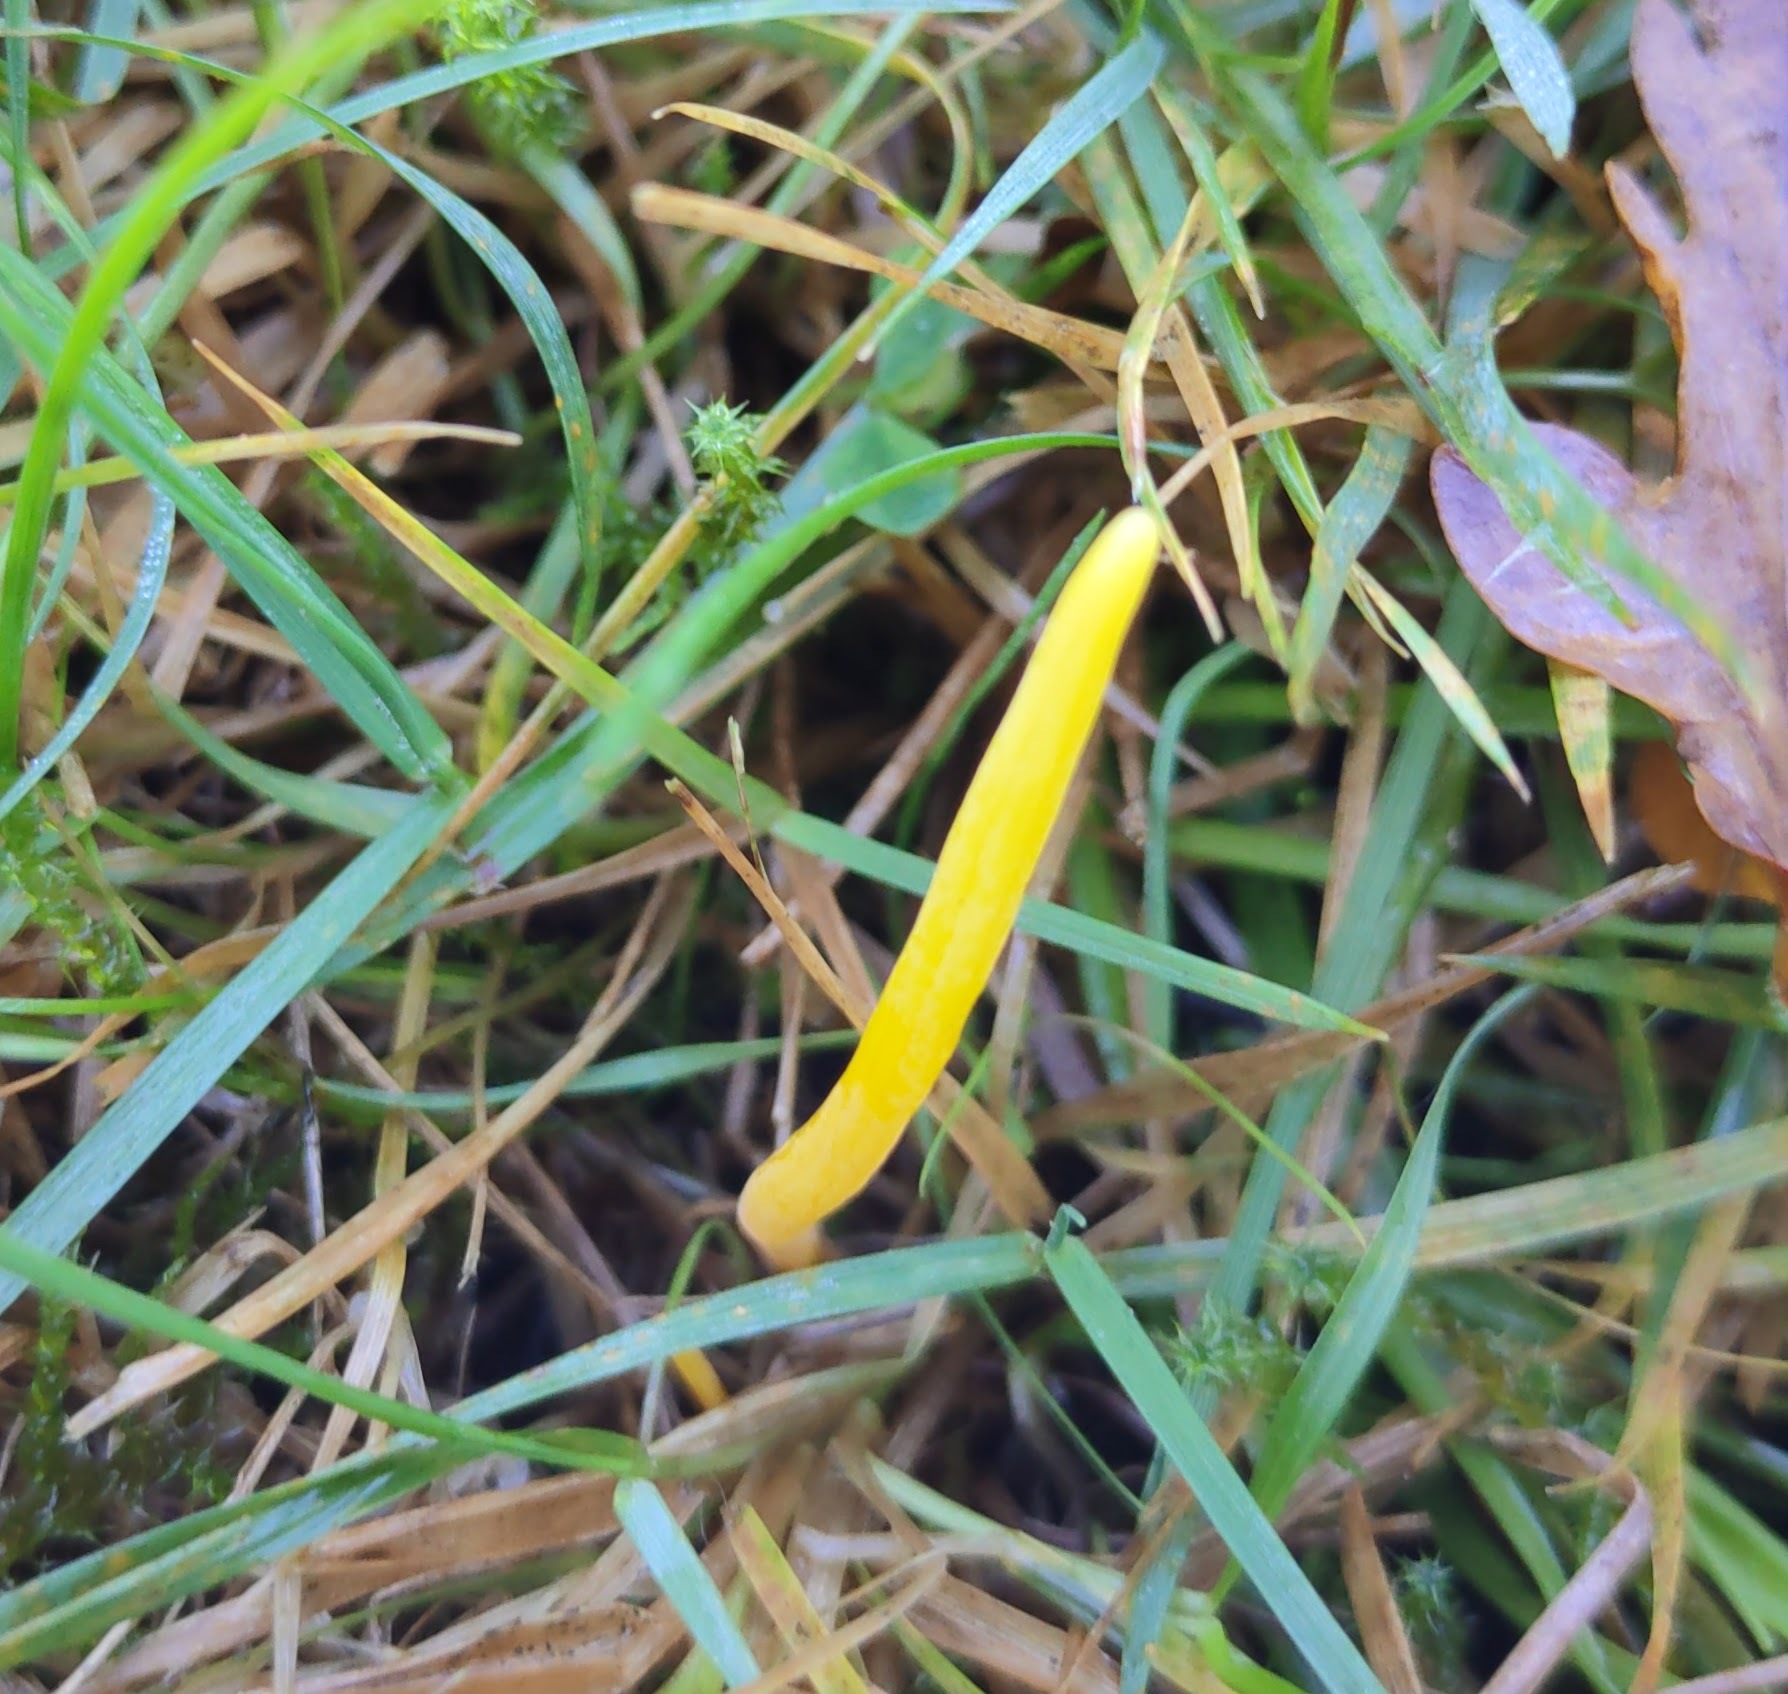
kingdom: Fungi
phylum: Basidiomycota
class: Agaricomycetes
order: Agaricales
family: Clavariaceae
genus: Clavulinopsis
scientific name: Clavulinopsis helvola
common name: Yellow club
